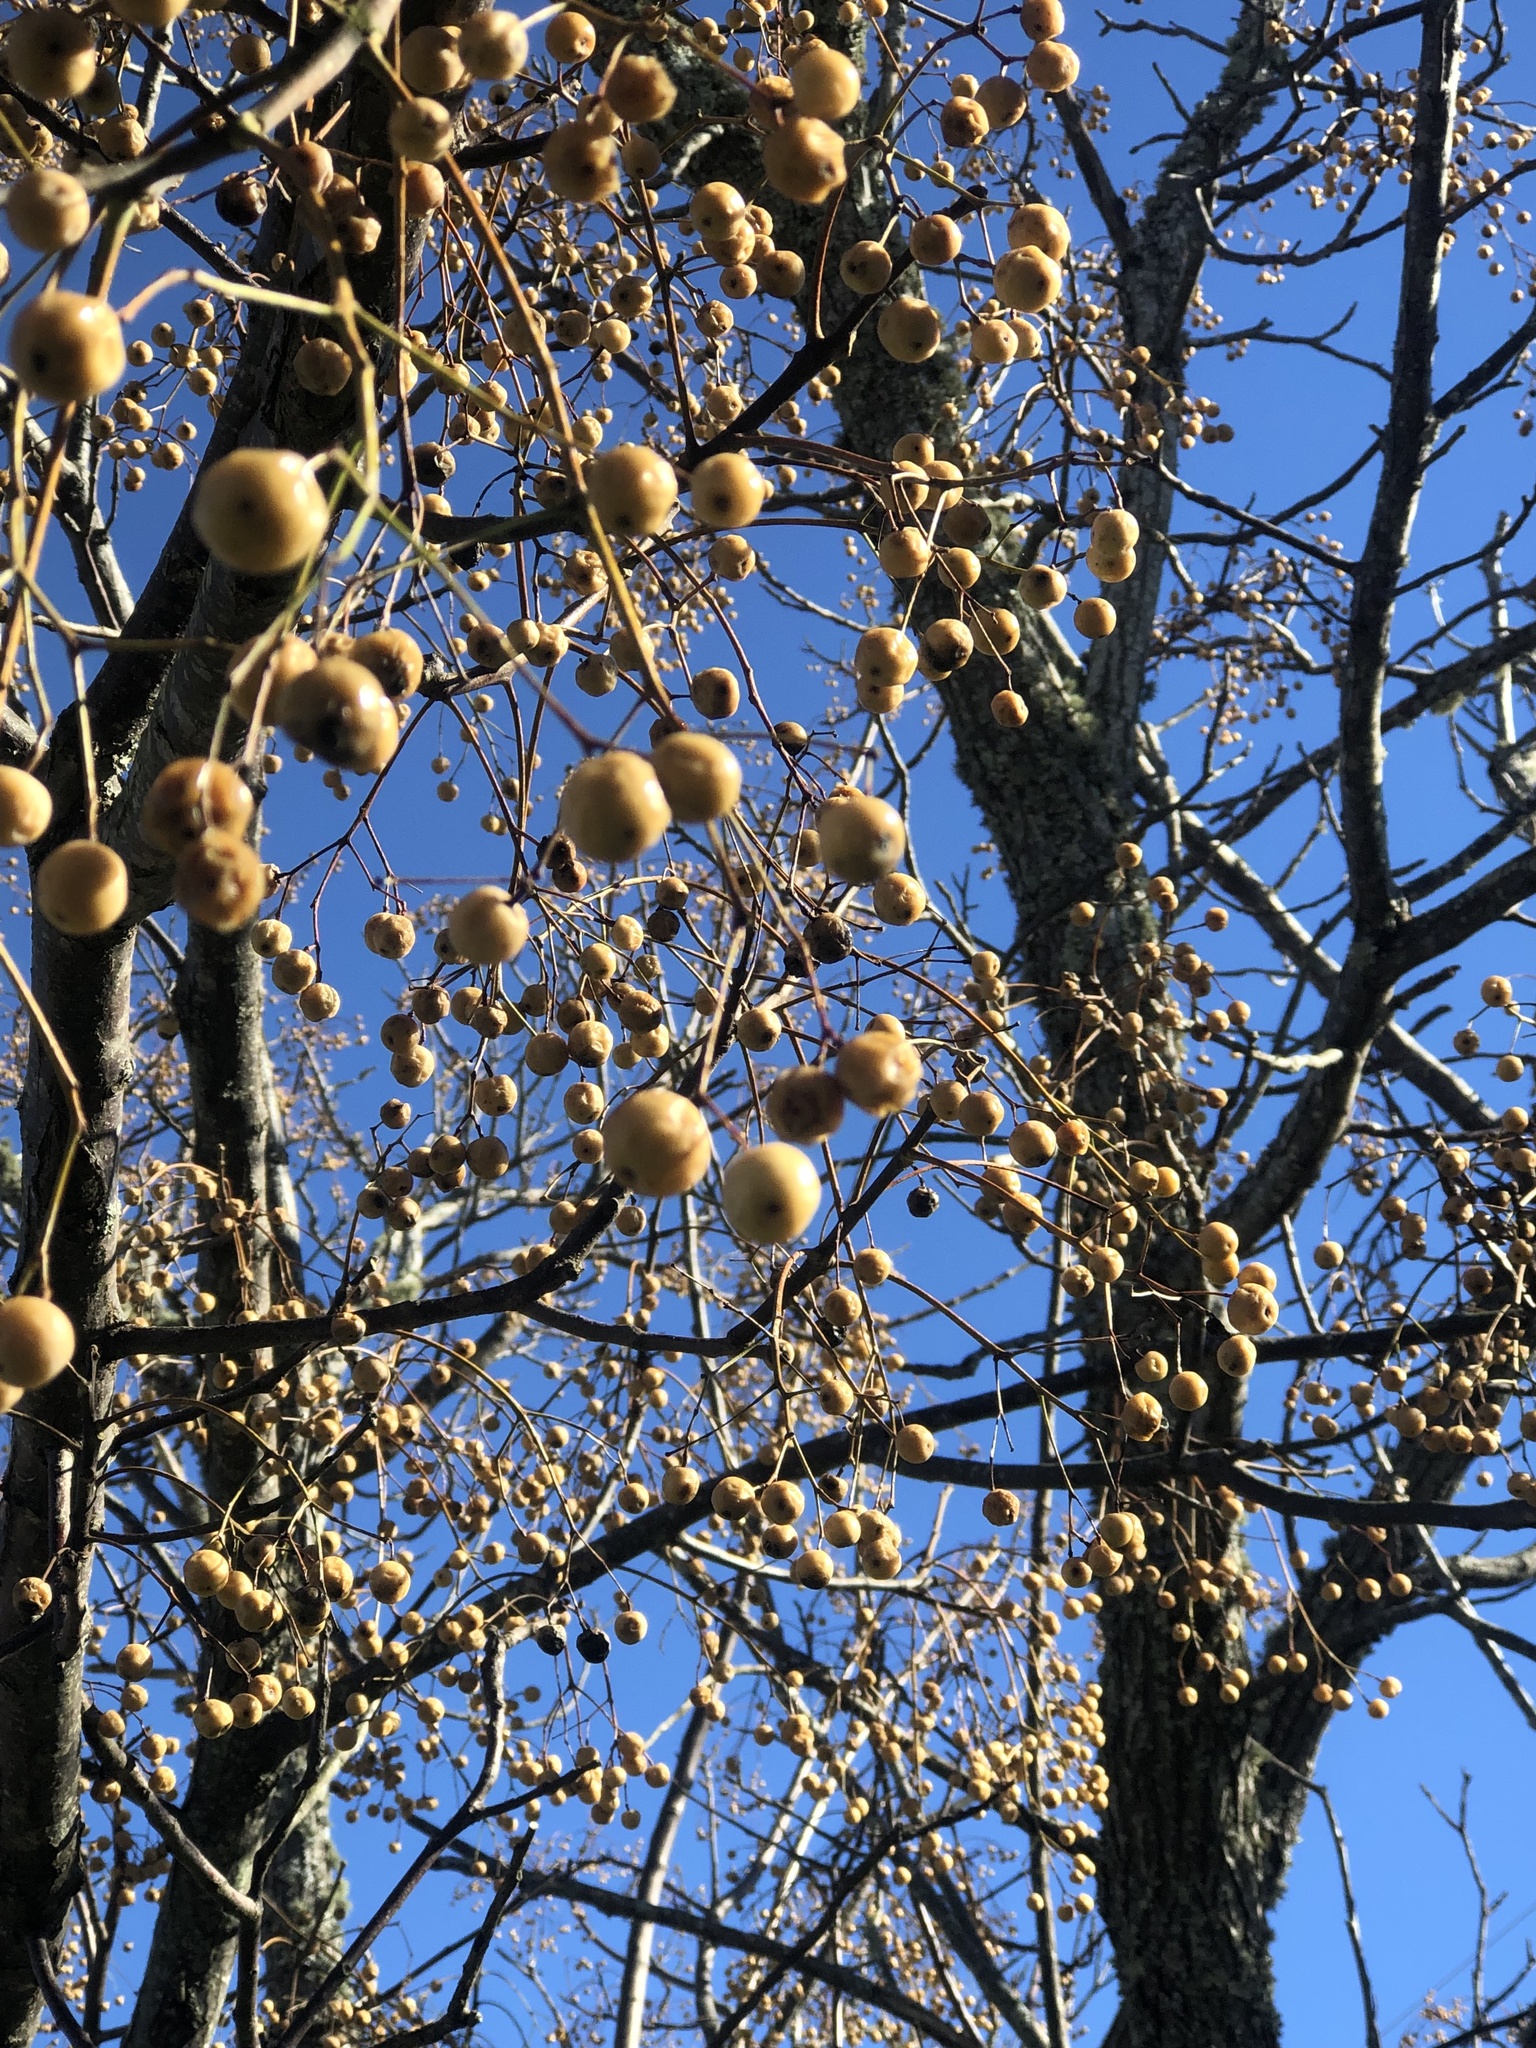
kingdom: Plantae
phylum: Tracheophyta
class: Magnoliopsida
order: Sapindales
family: Meliaceae
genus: Melia
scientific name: Melia azedarach
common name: Chinaberrytree
